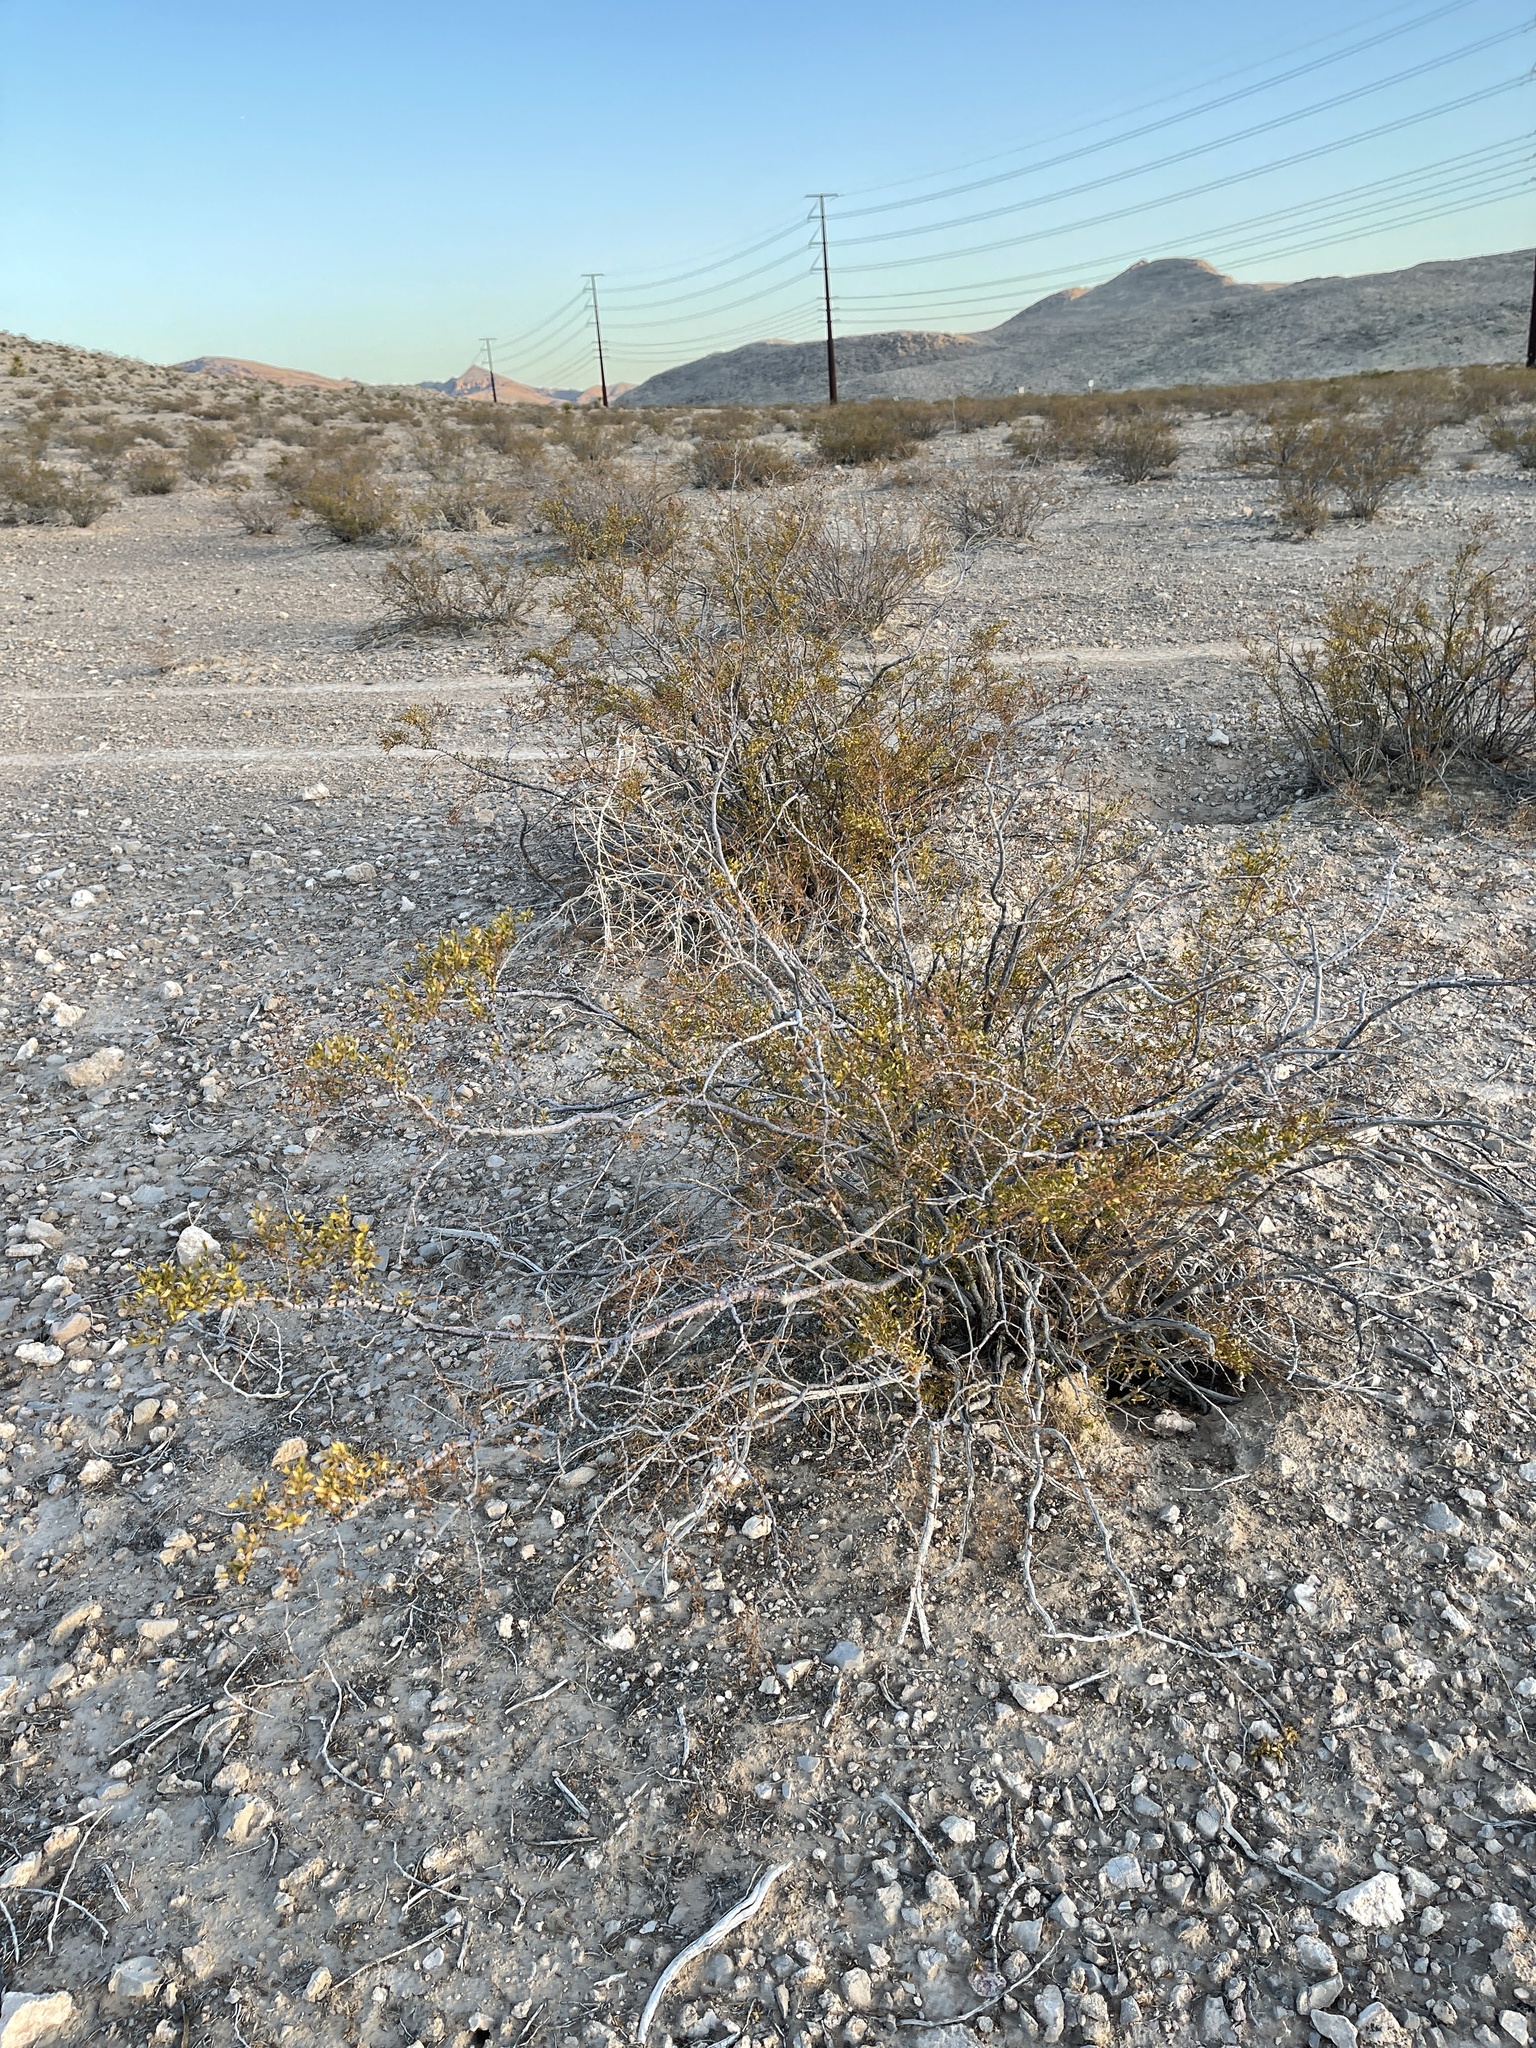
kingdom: Plantae
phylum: Tracheophyta
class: Magnoliopsida
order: Zygophyllales
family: Zygophyllaceae
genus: Larrea
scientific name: Larrea tridentata
